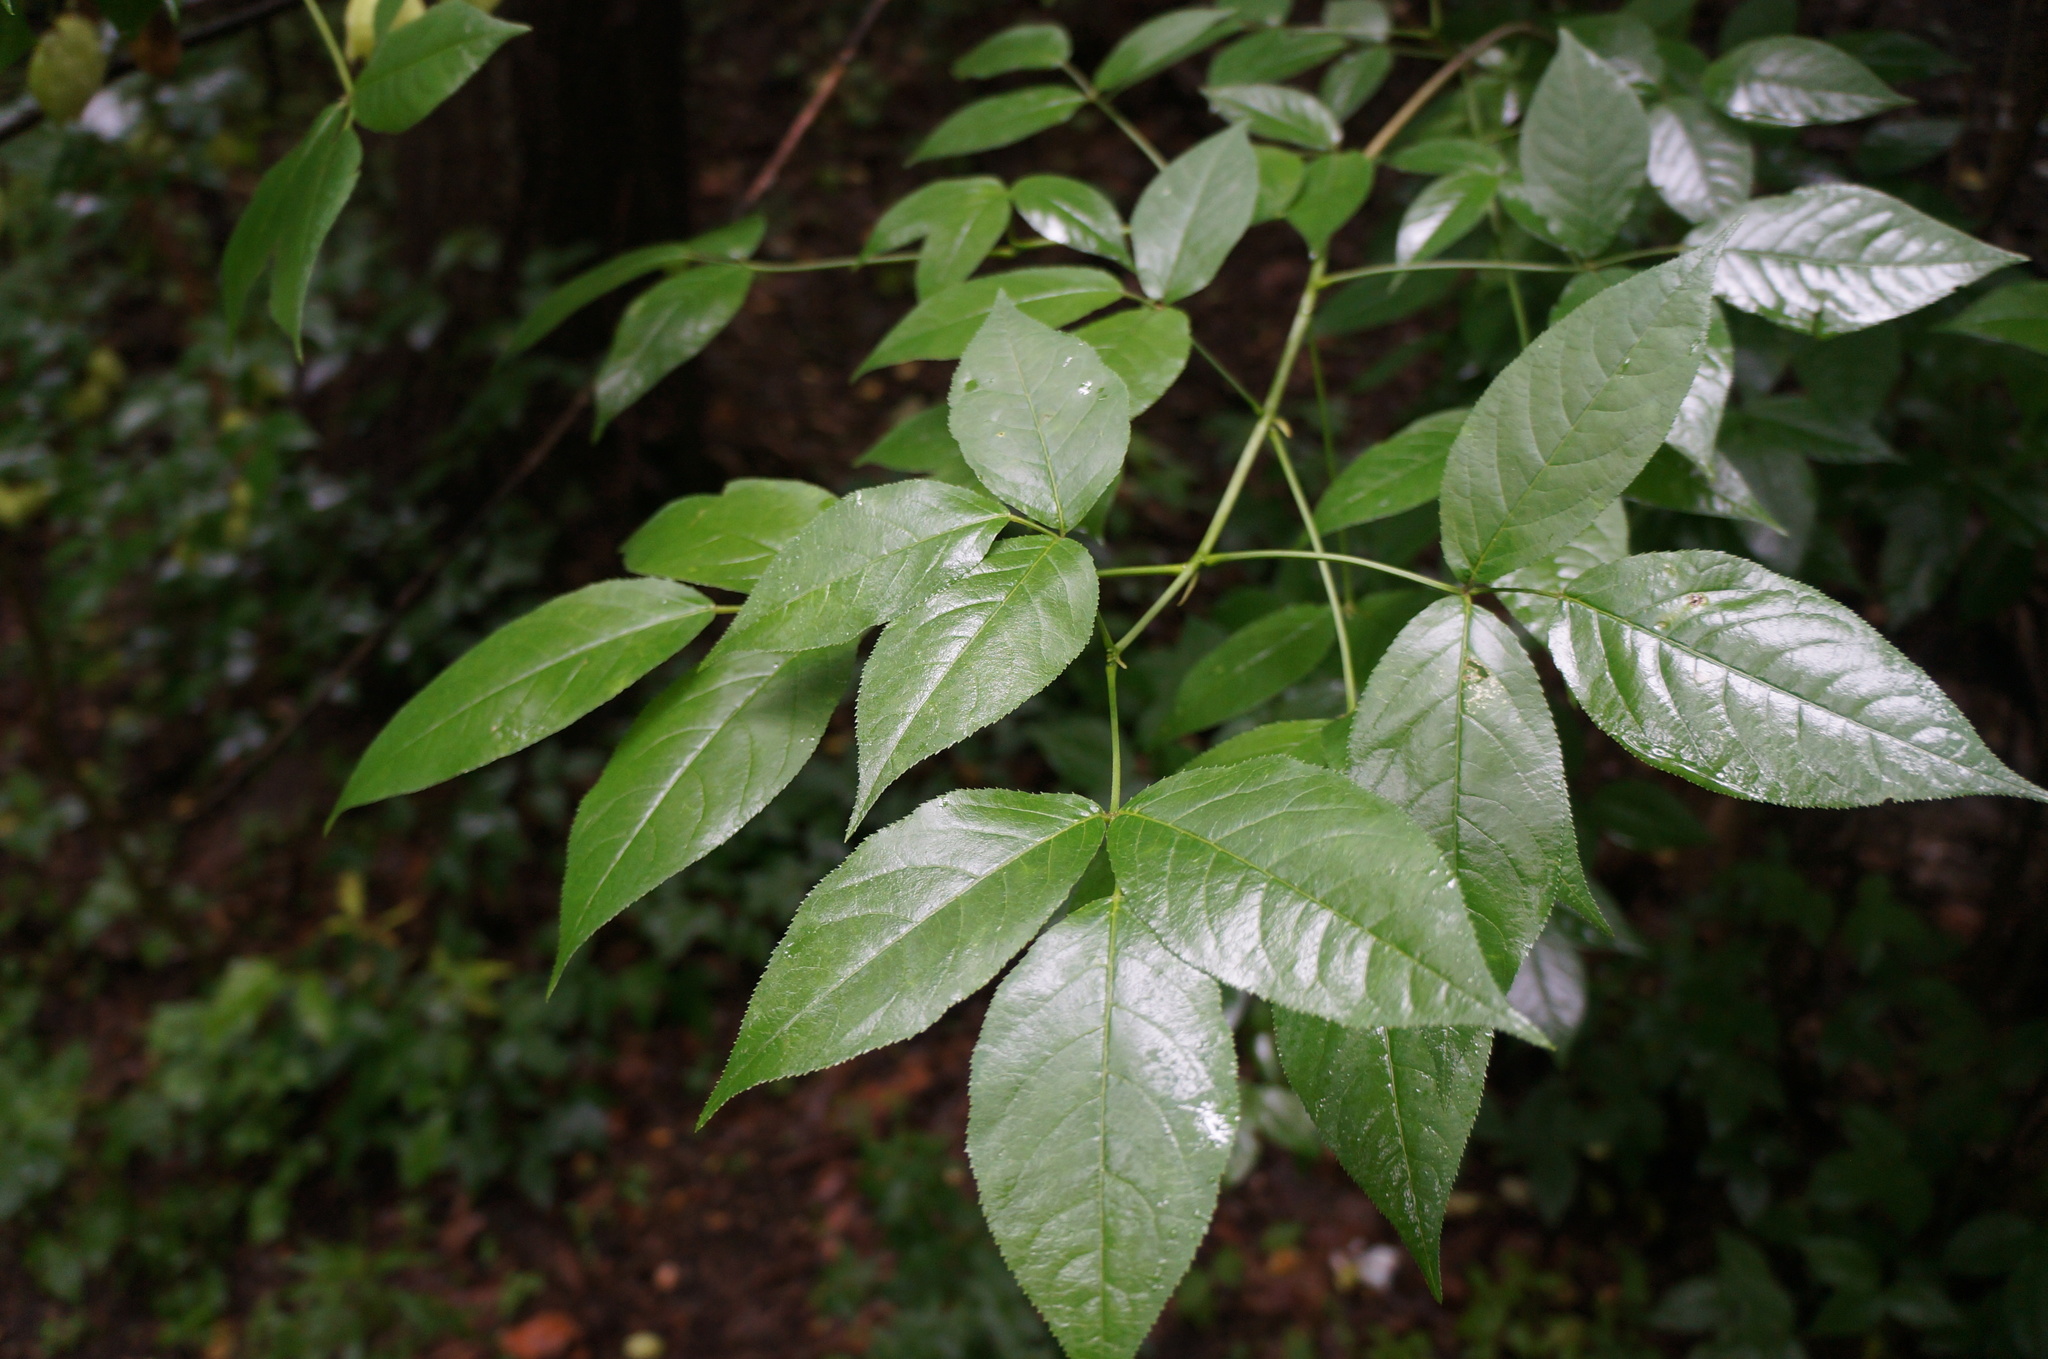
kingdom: Plantae
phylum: Tracheophyta
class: Magnoliopsida
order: Crossosomatales
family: Staphyleaceae
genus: Staphylea
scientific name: Staphylea trifolia
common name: American bladdernut
